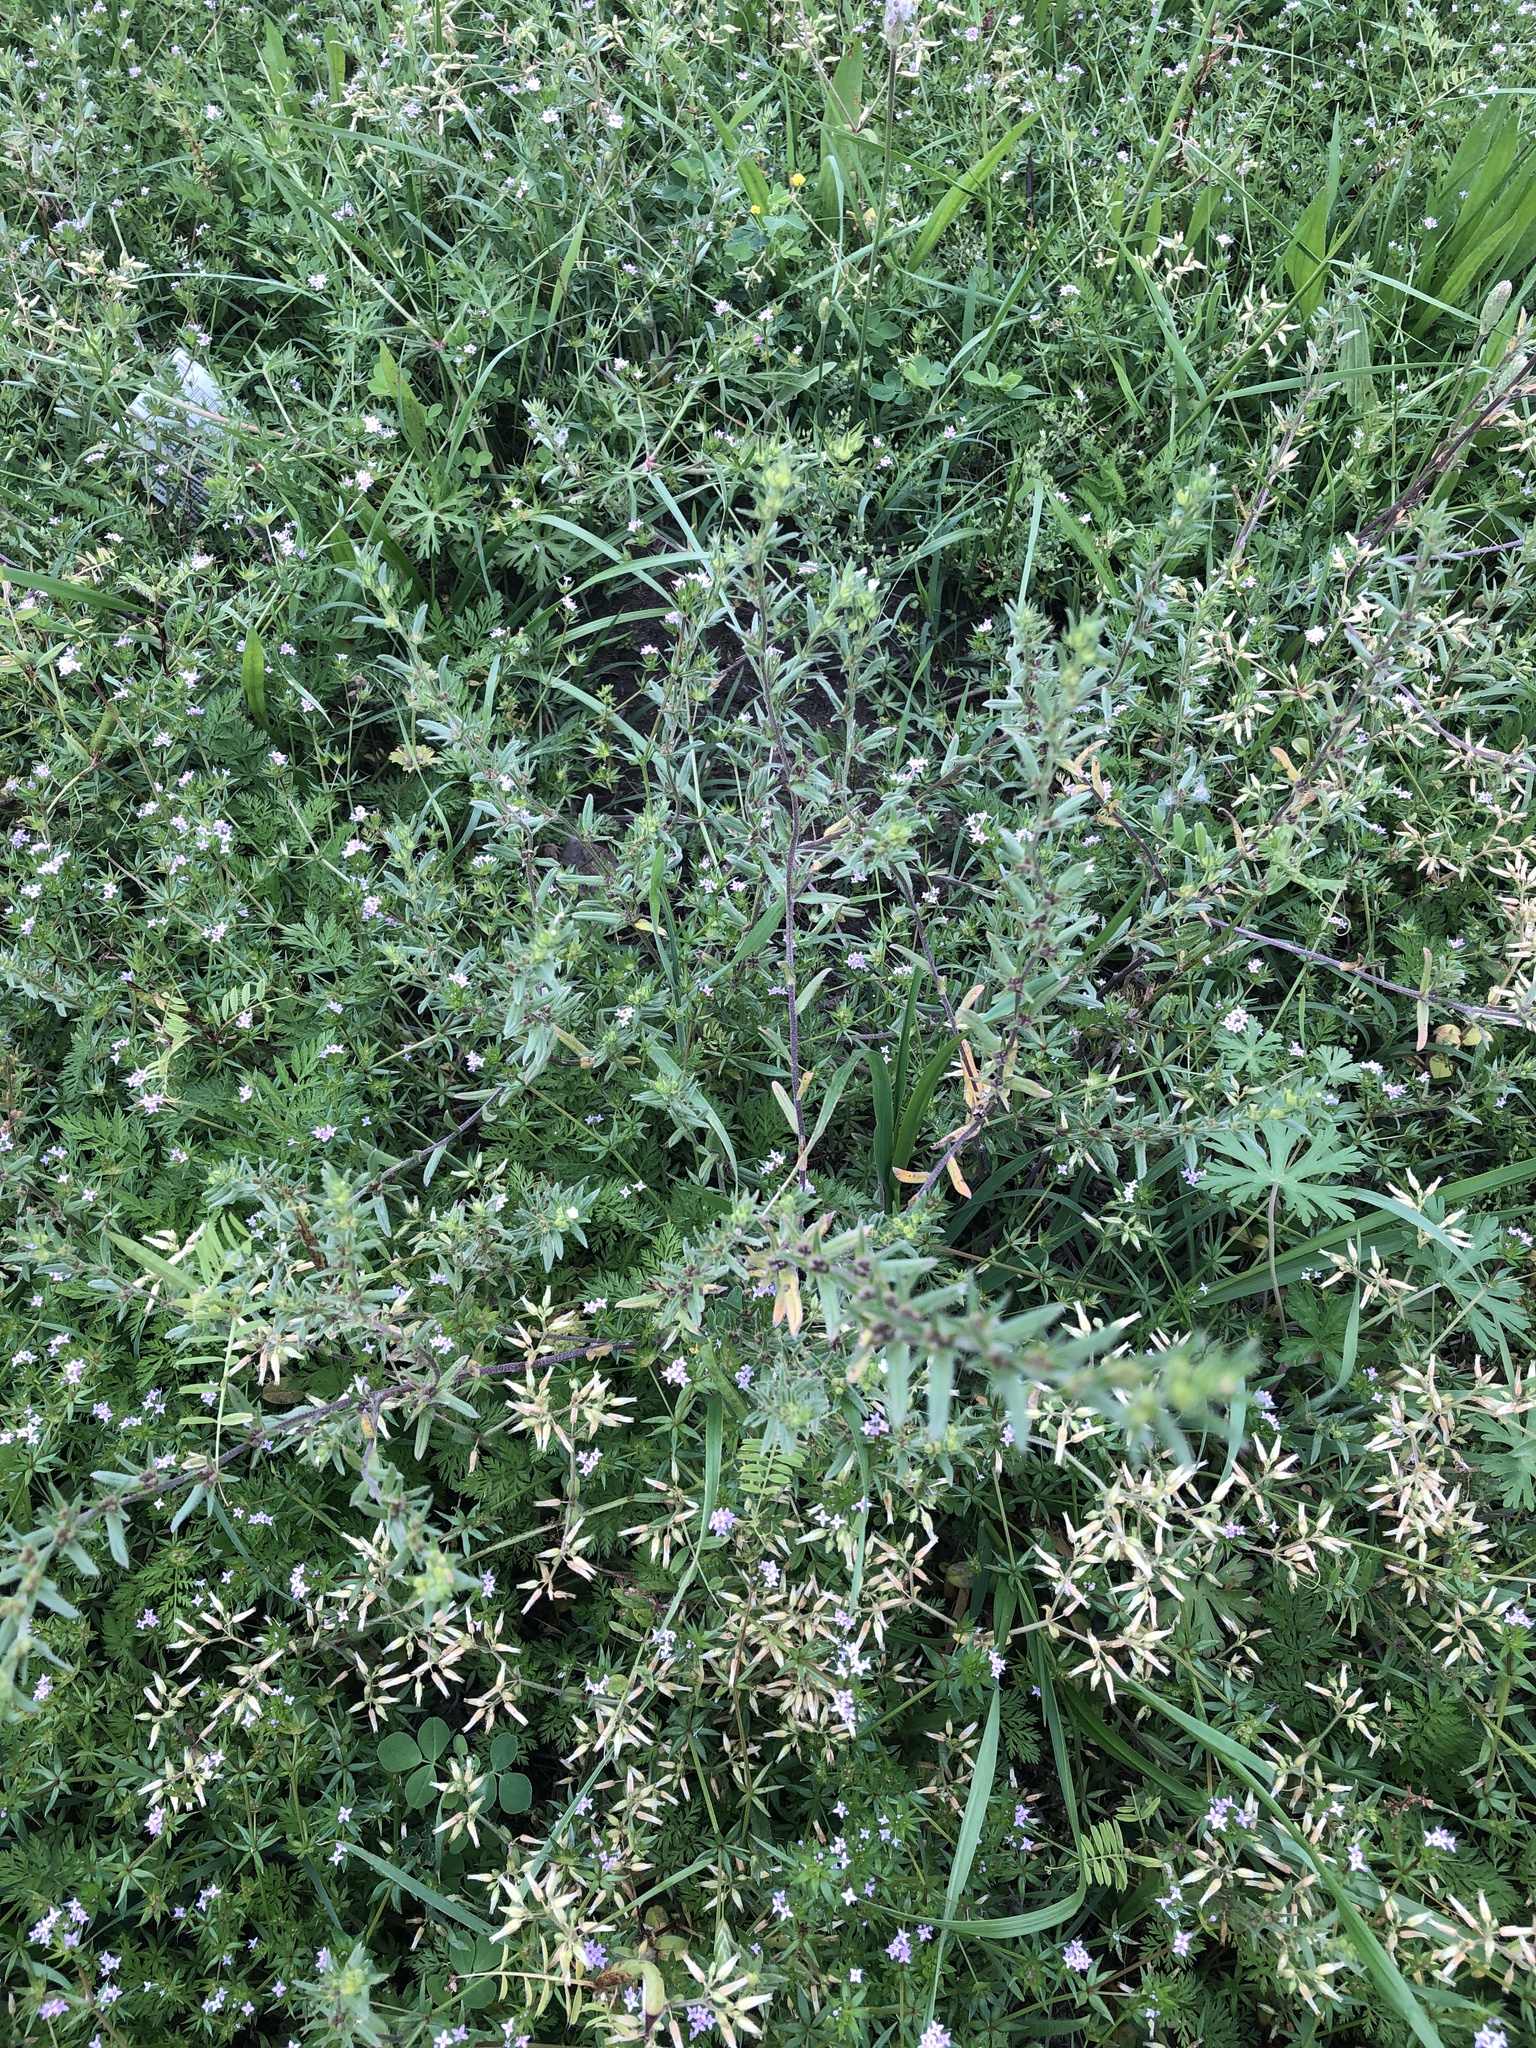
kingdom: Plantae
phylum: Tracheophyta
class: Magnoliopsida
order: Boraginales
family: Boraginaceae
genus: Buglossoides
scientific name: Buglossoides arvensis
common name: Corn gromwell
